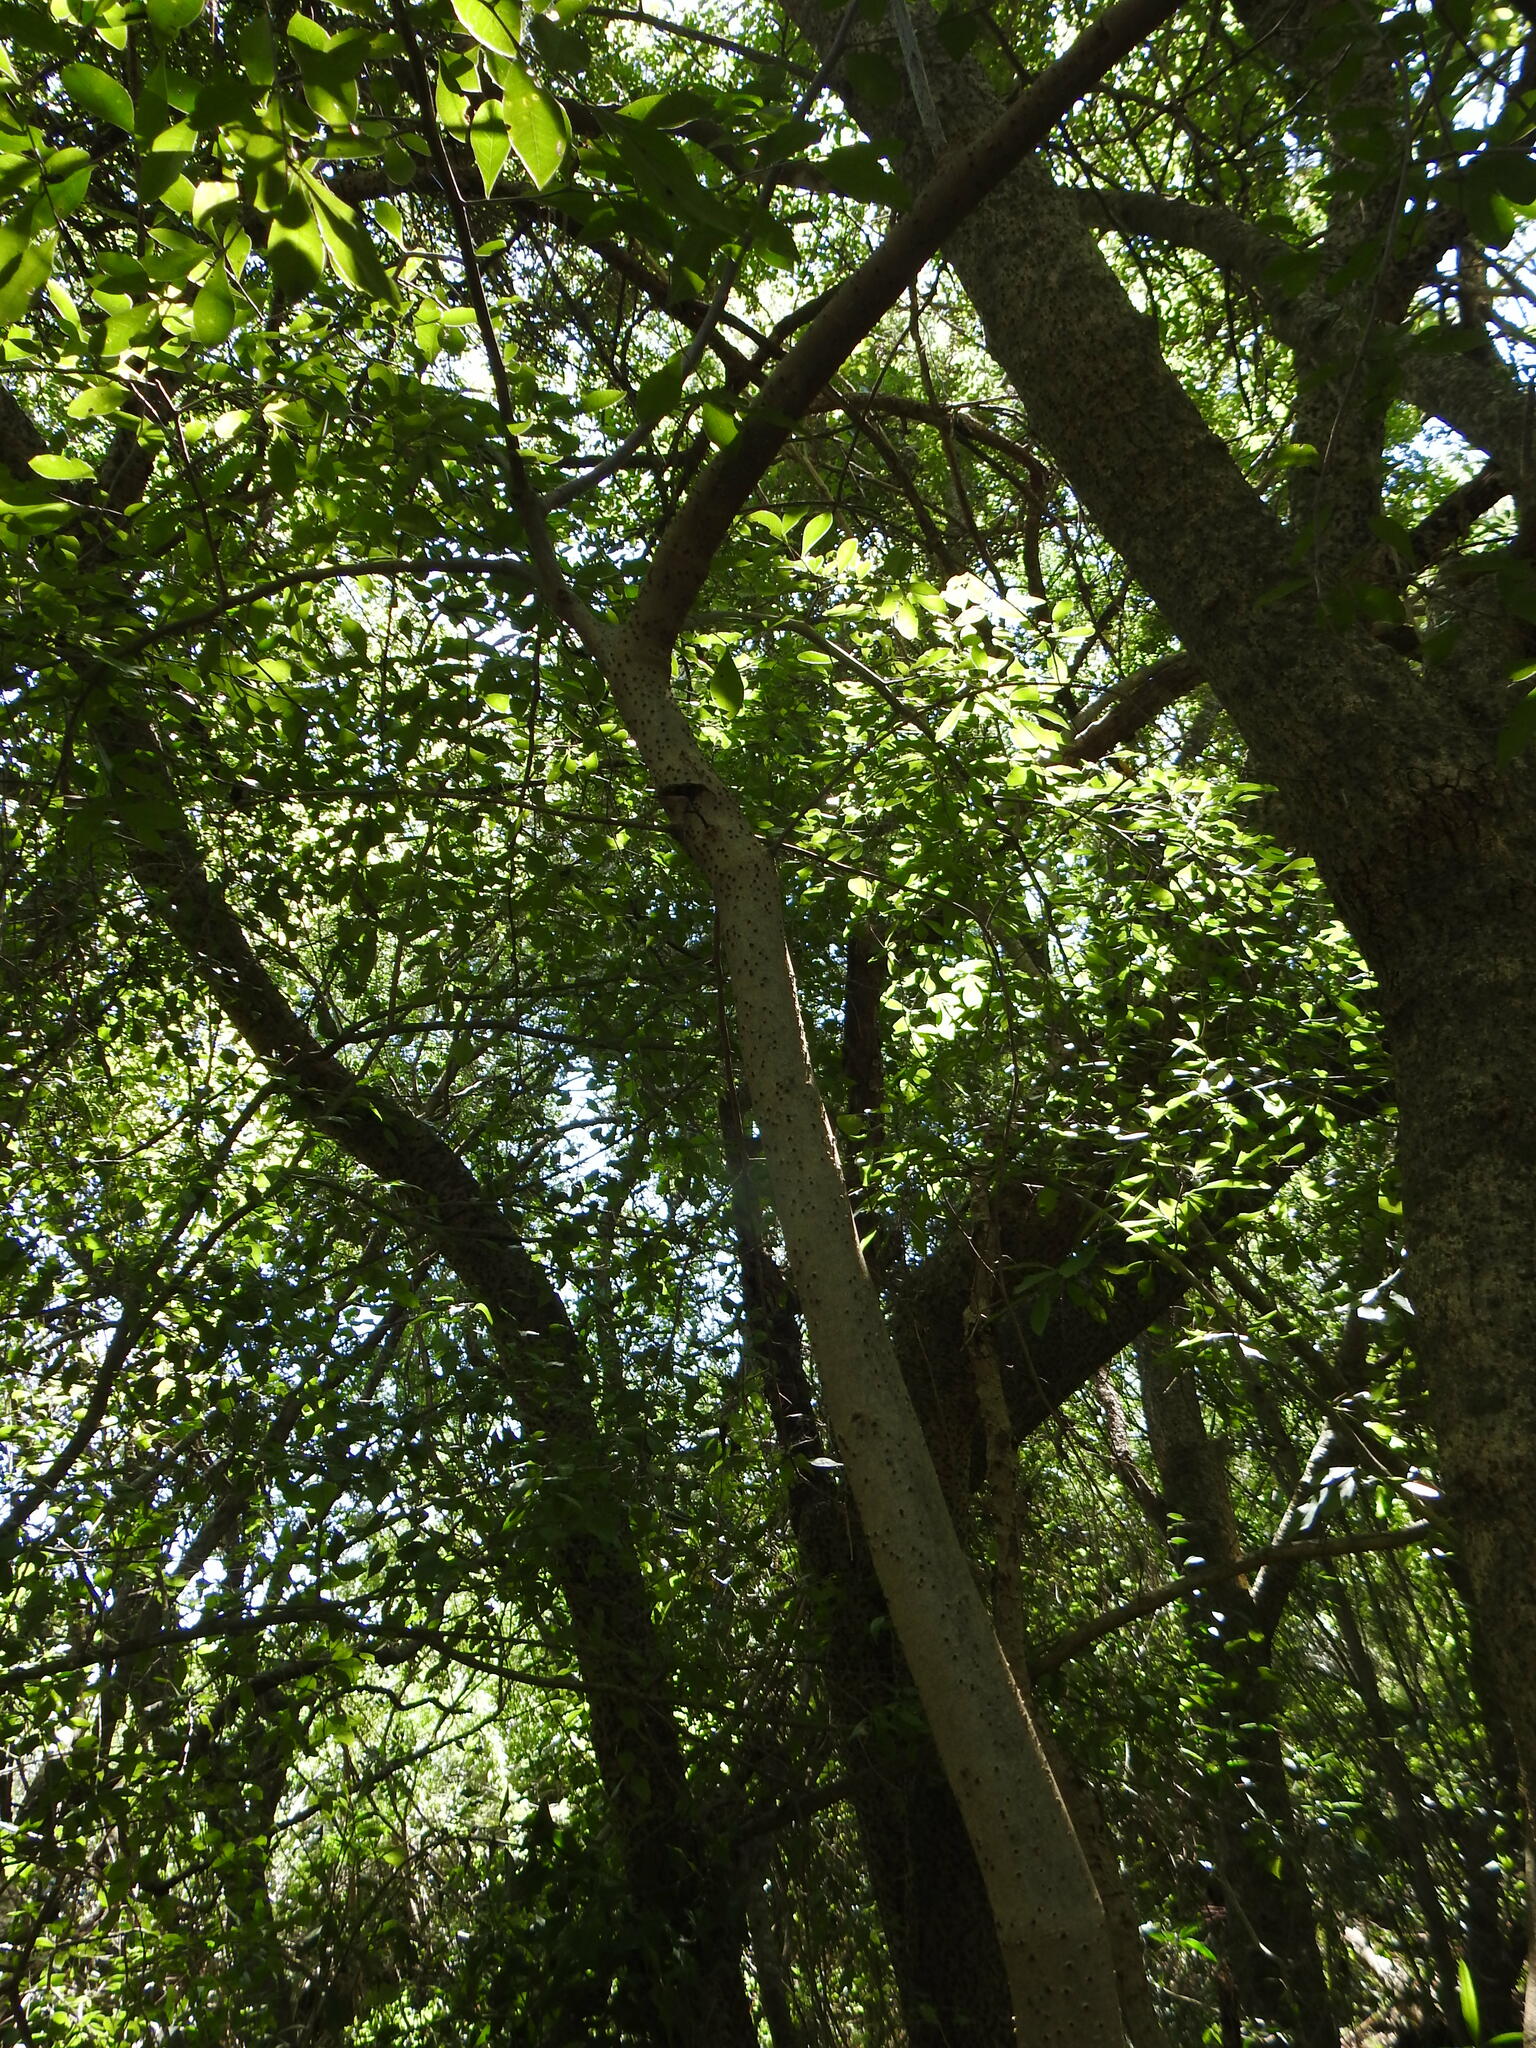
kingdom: Plantae
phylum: Tracheophyta
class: Magnoliopsida
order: Santalales
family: Cervantesiaceae
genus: Acanthosyris
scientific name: Acanthosyris spinescens
